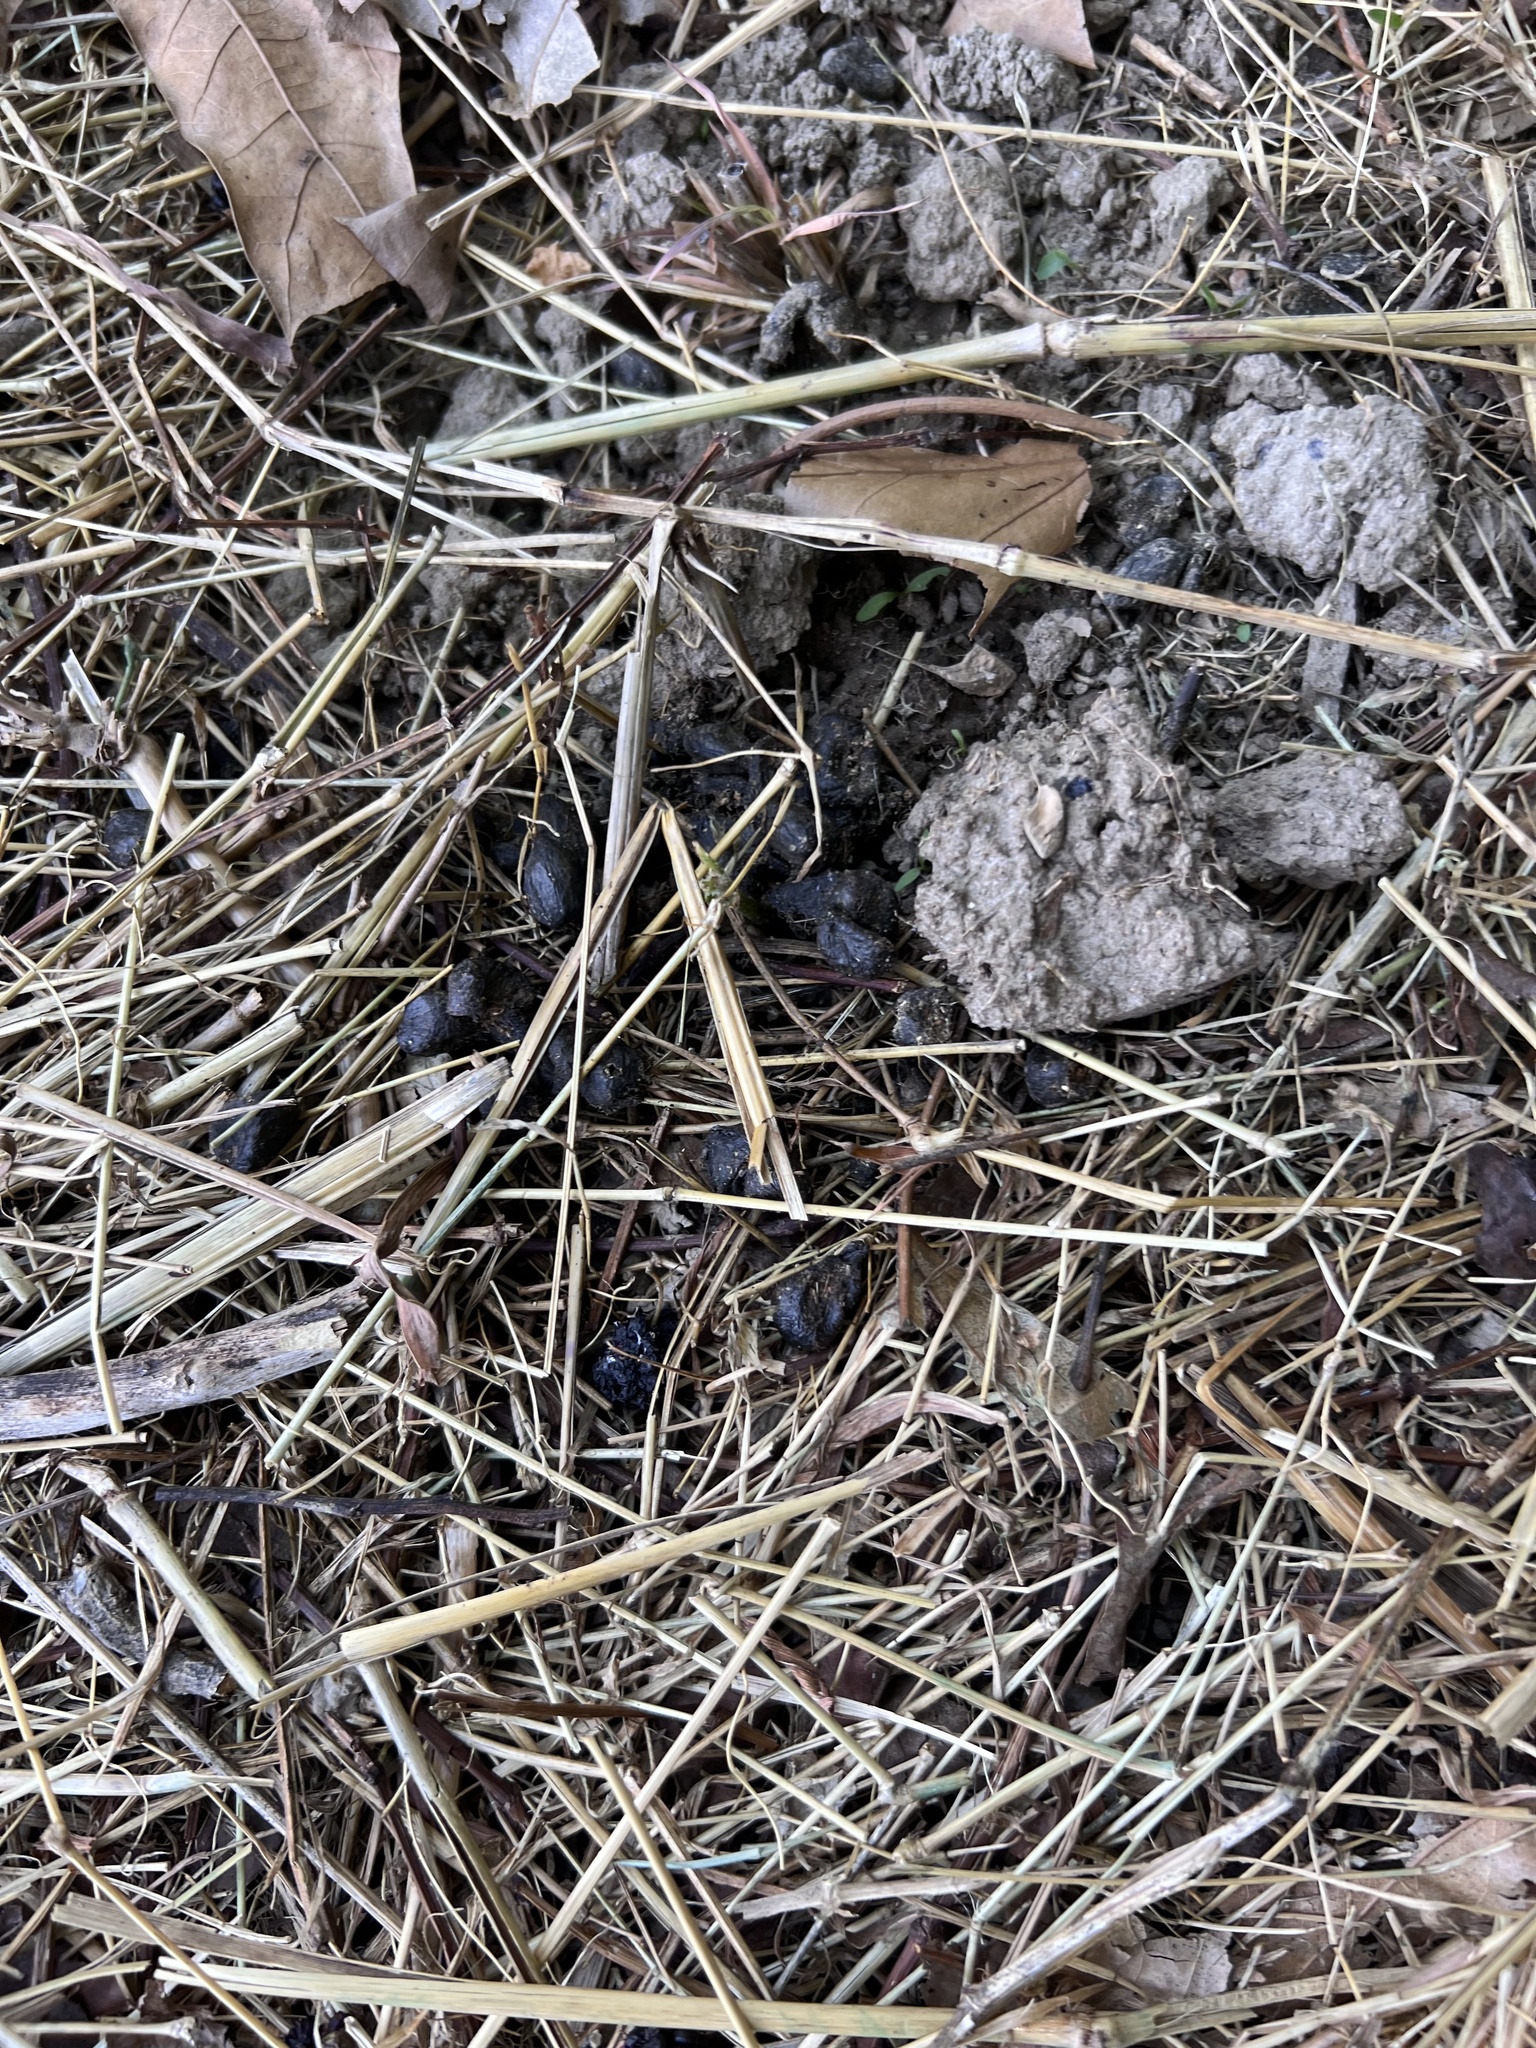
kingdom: Animalia
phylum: Chordata
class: Mammalia
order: Artiodactyla
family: Cervidae
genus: Odocoileus
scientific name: Odocoileus virginianus
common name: White-tailed deer
